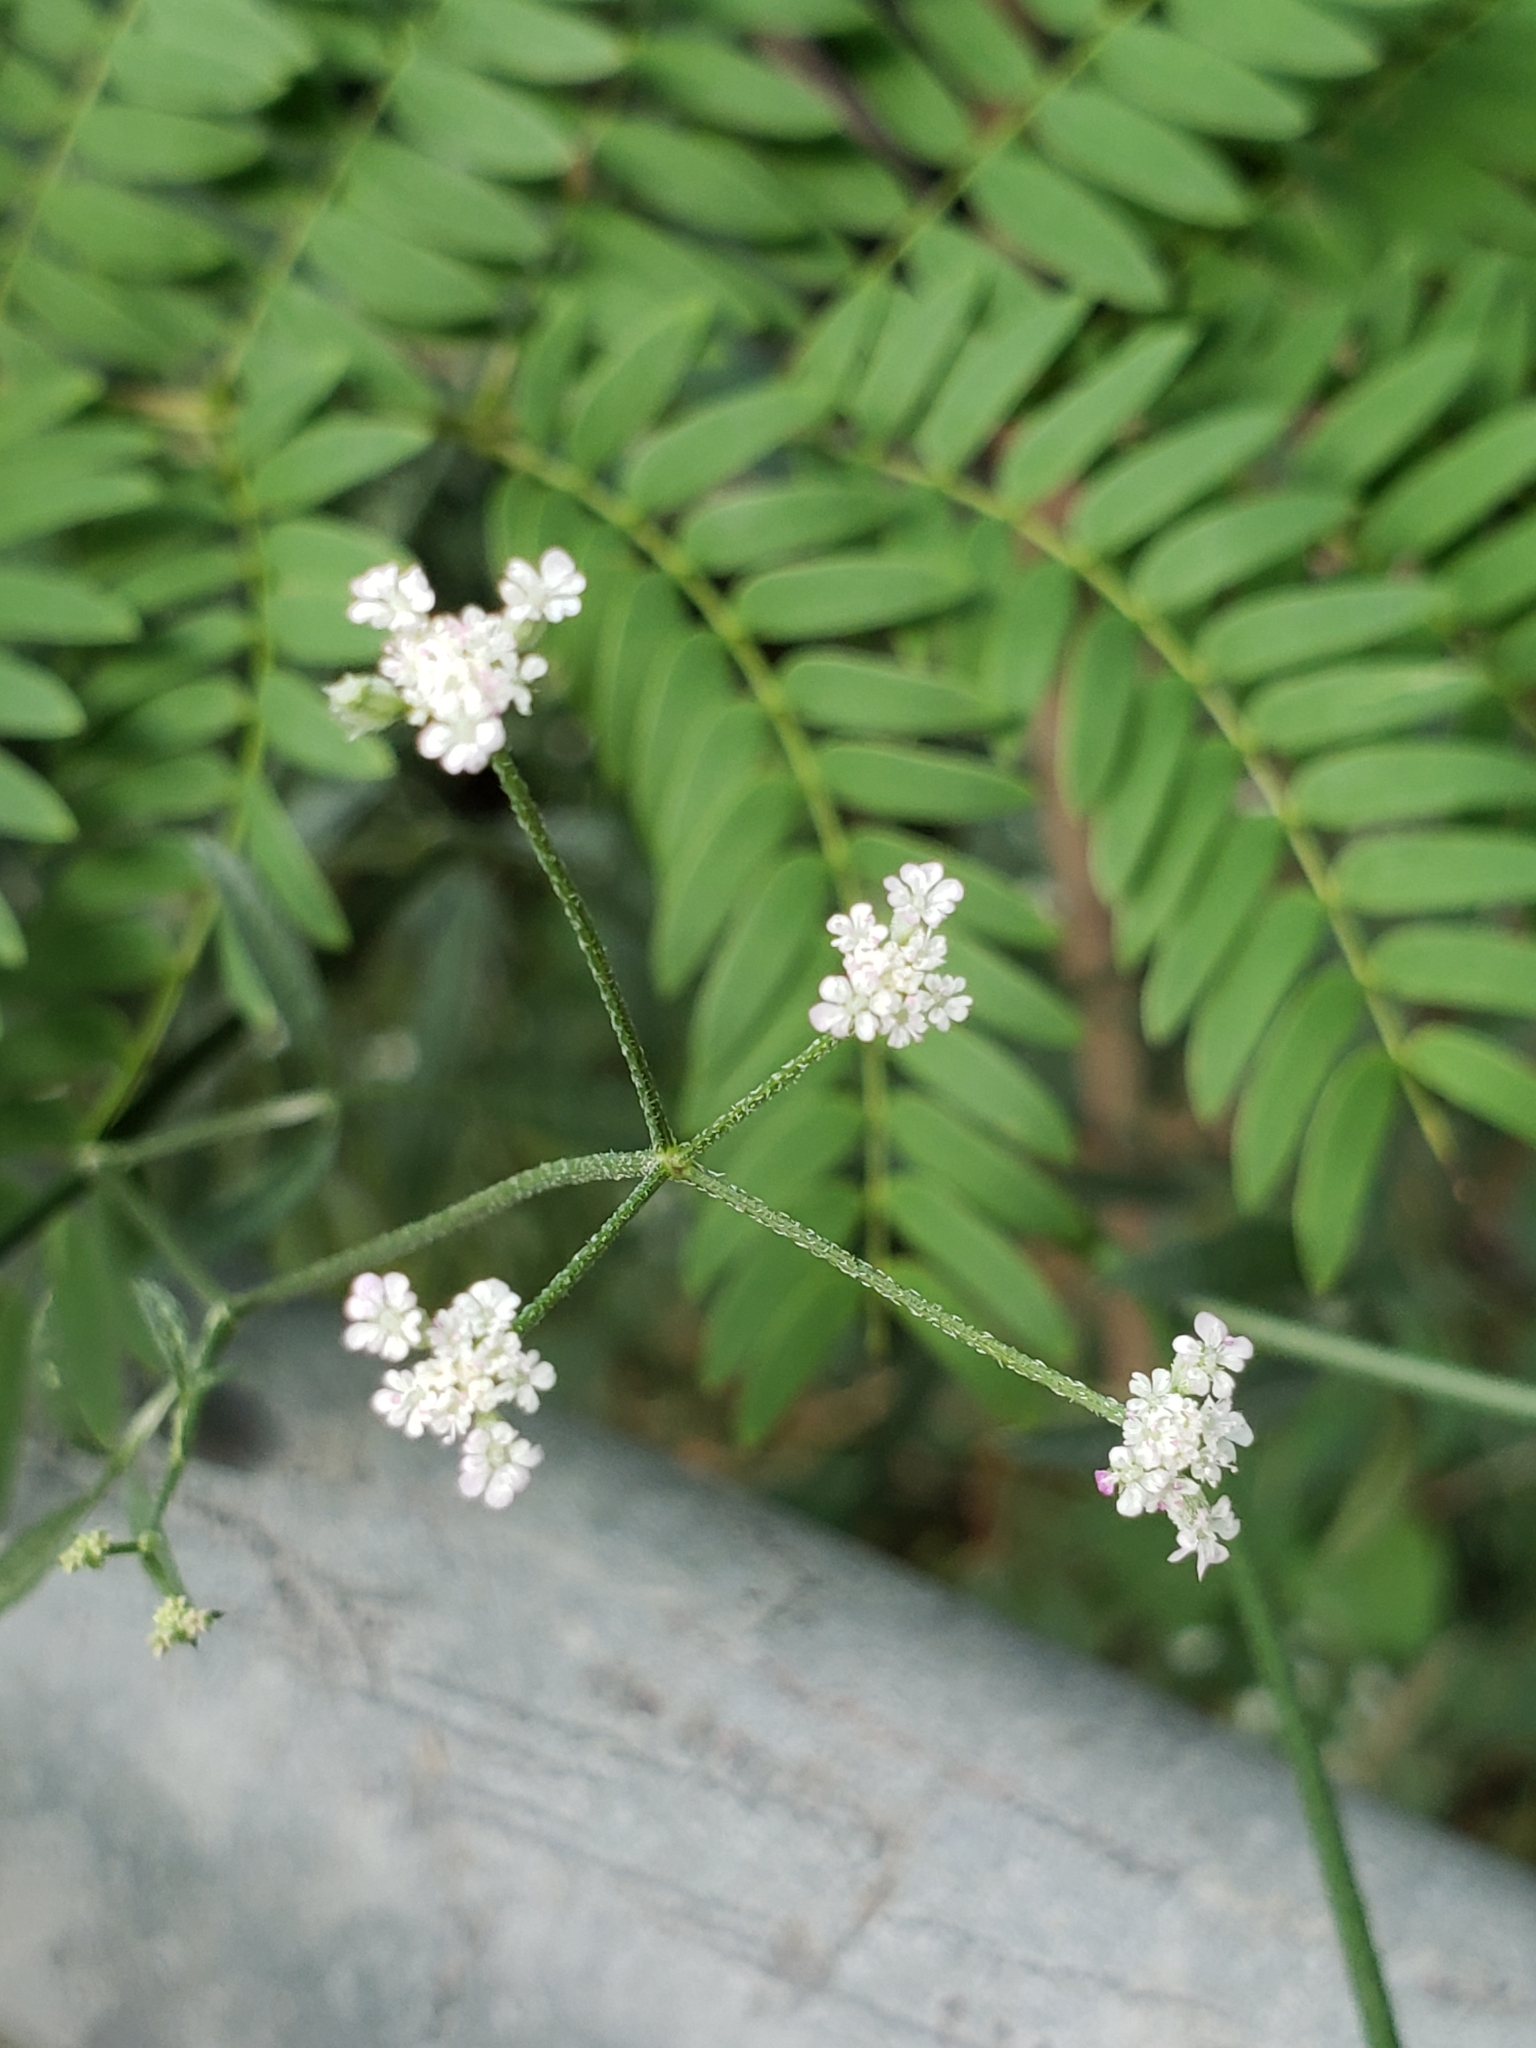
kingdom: Plantae
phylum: Tracheophyta
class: Magnoliopsida
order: Apiales
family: Apiaceae
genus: Torilis
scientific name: Torilis arvensis
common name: Spreading hedge-parsley
